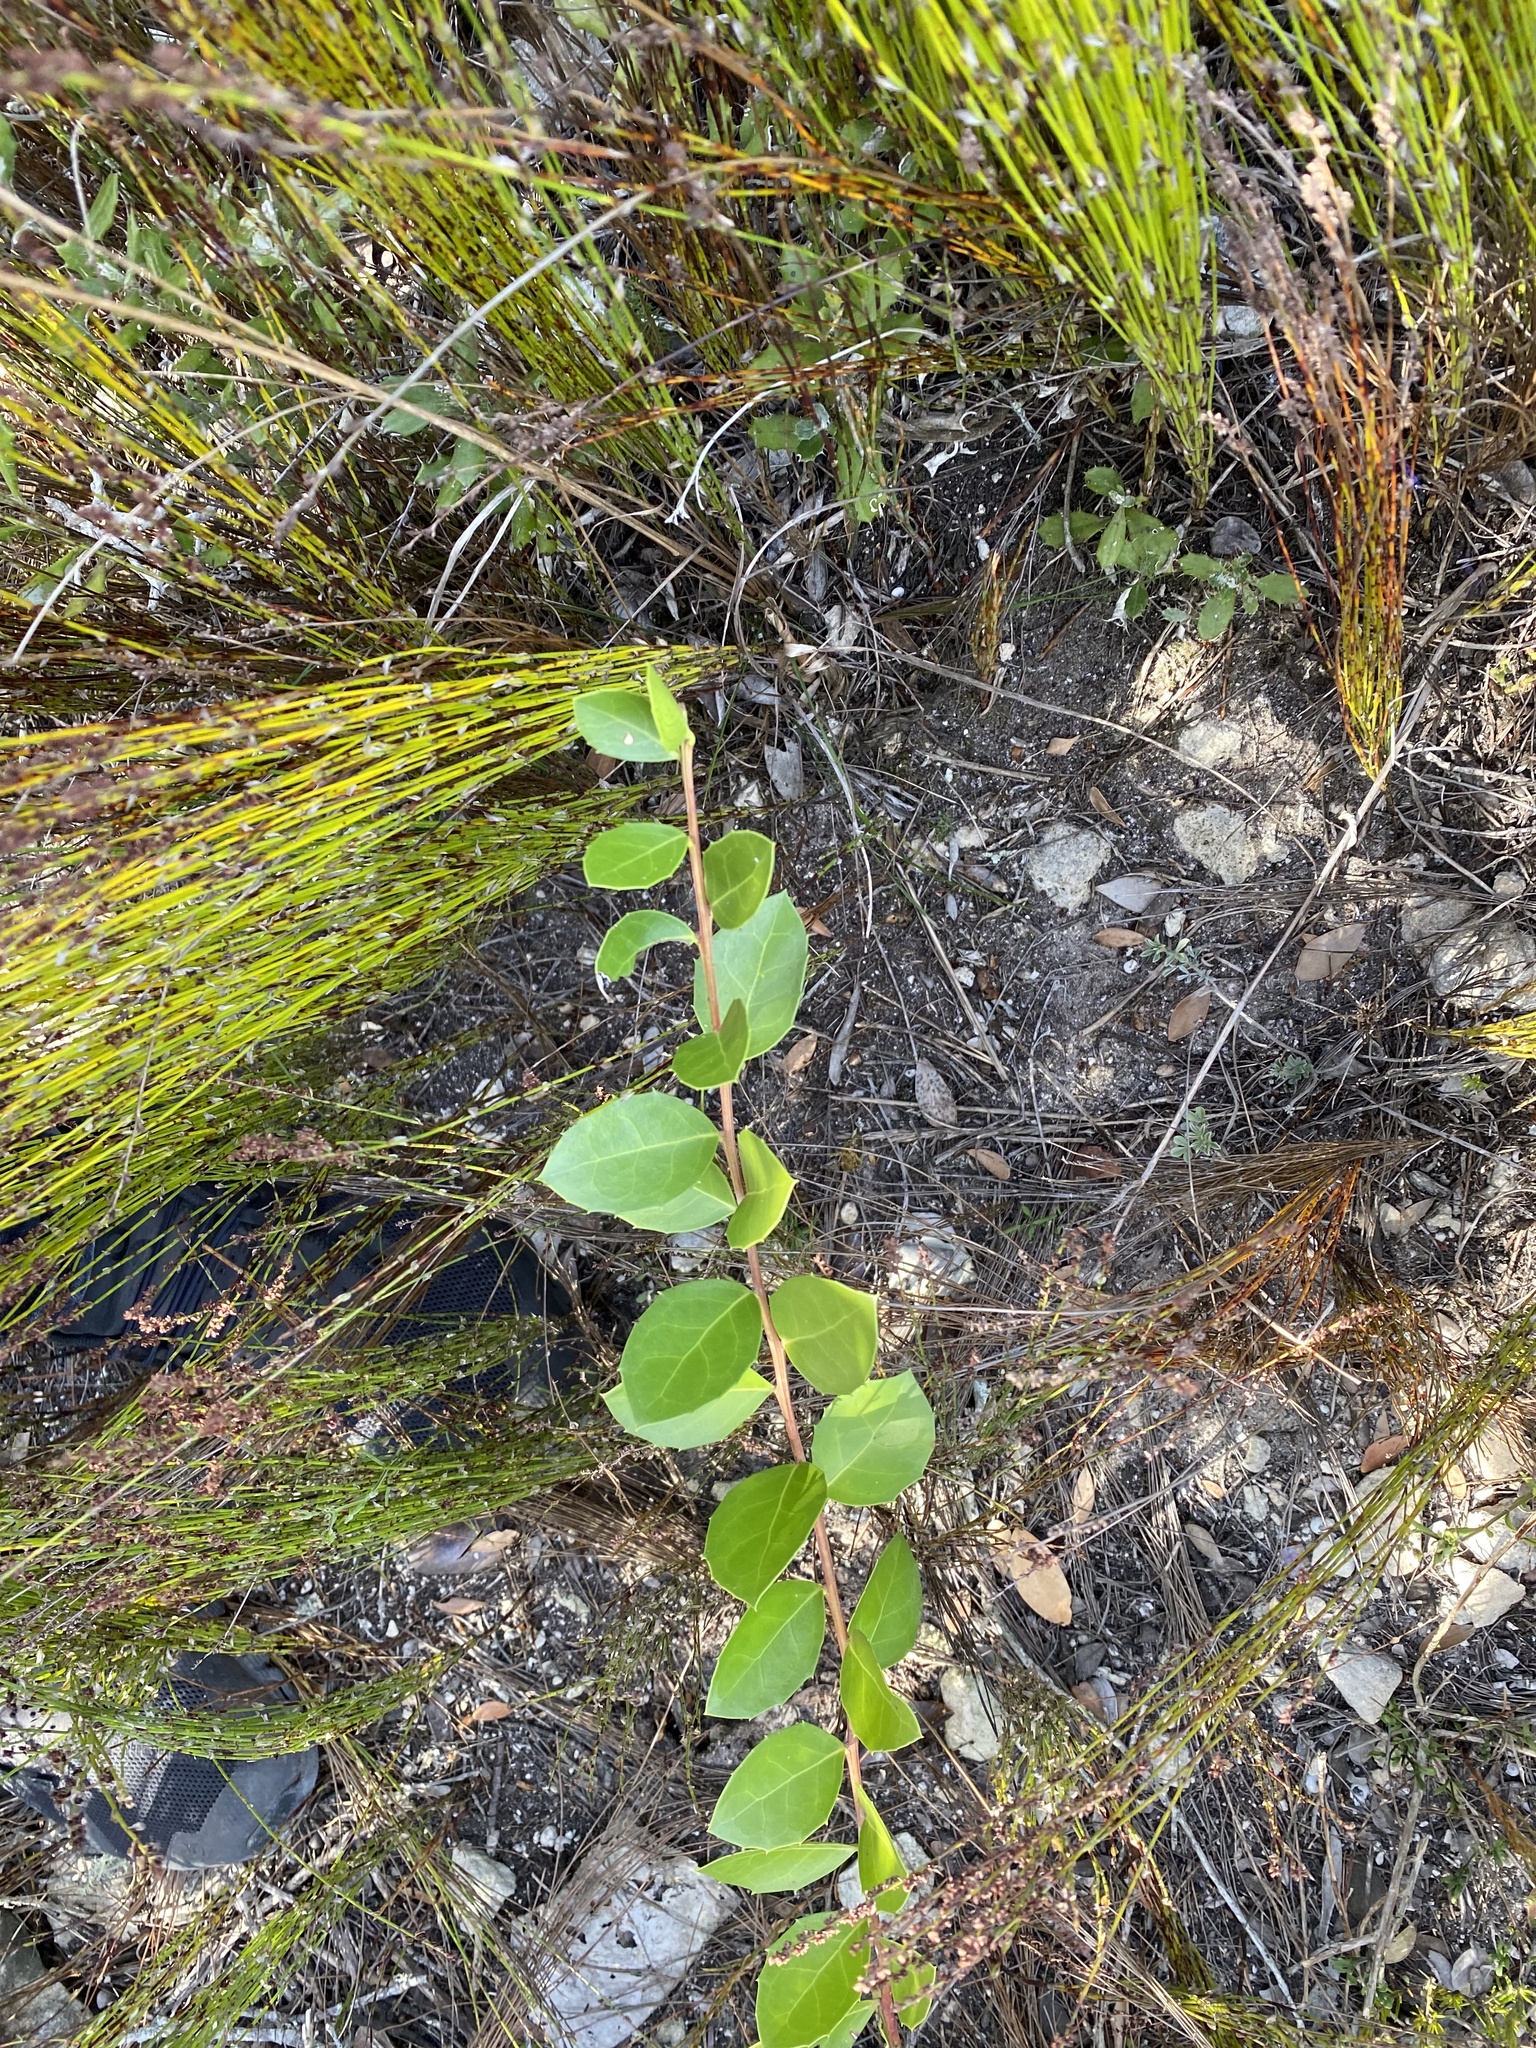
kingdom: Plantae
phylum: Tracheophyta
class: Magnoliopsida
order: Celastrales
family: Celastraceae
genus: Gymnosporia
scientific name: Gymnosporia procumbens
